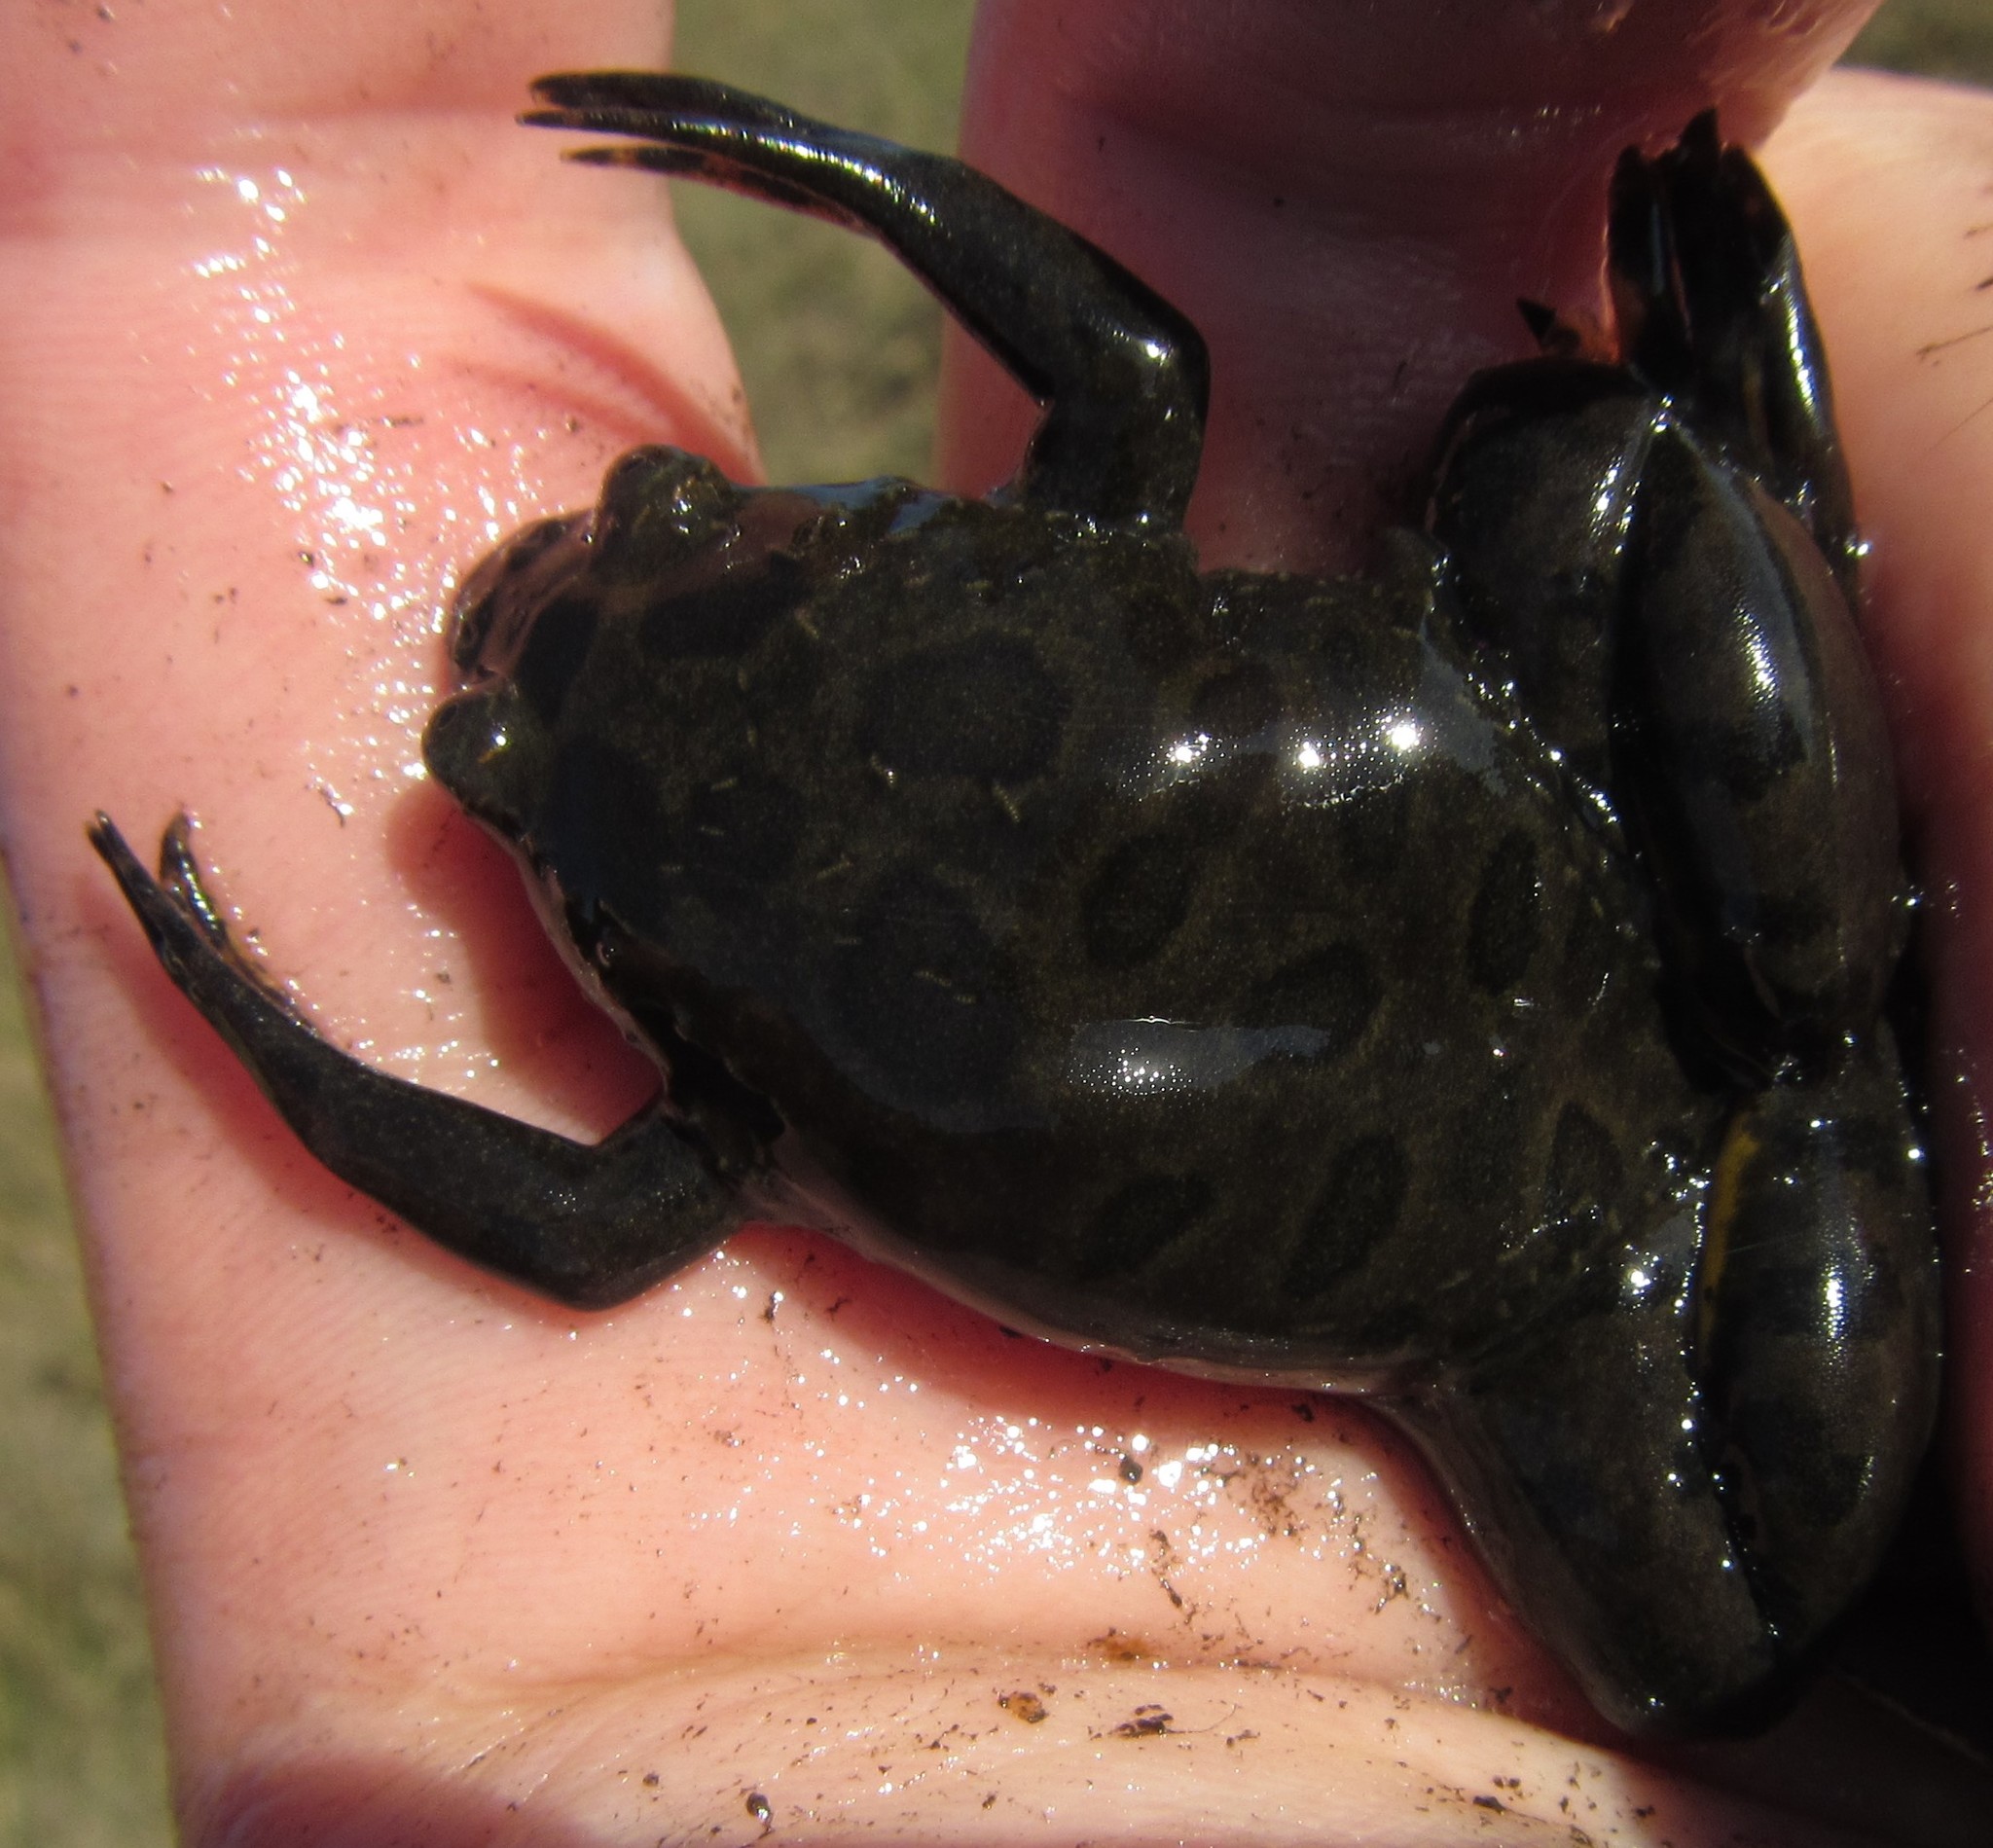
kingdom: Animalia
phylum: Chordata
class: Amphibia
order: Anura
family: Pipidae
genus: Xenopus
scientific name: Xenopus muelleri
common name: Muller's clawed frog
